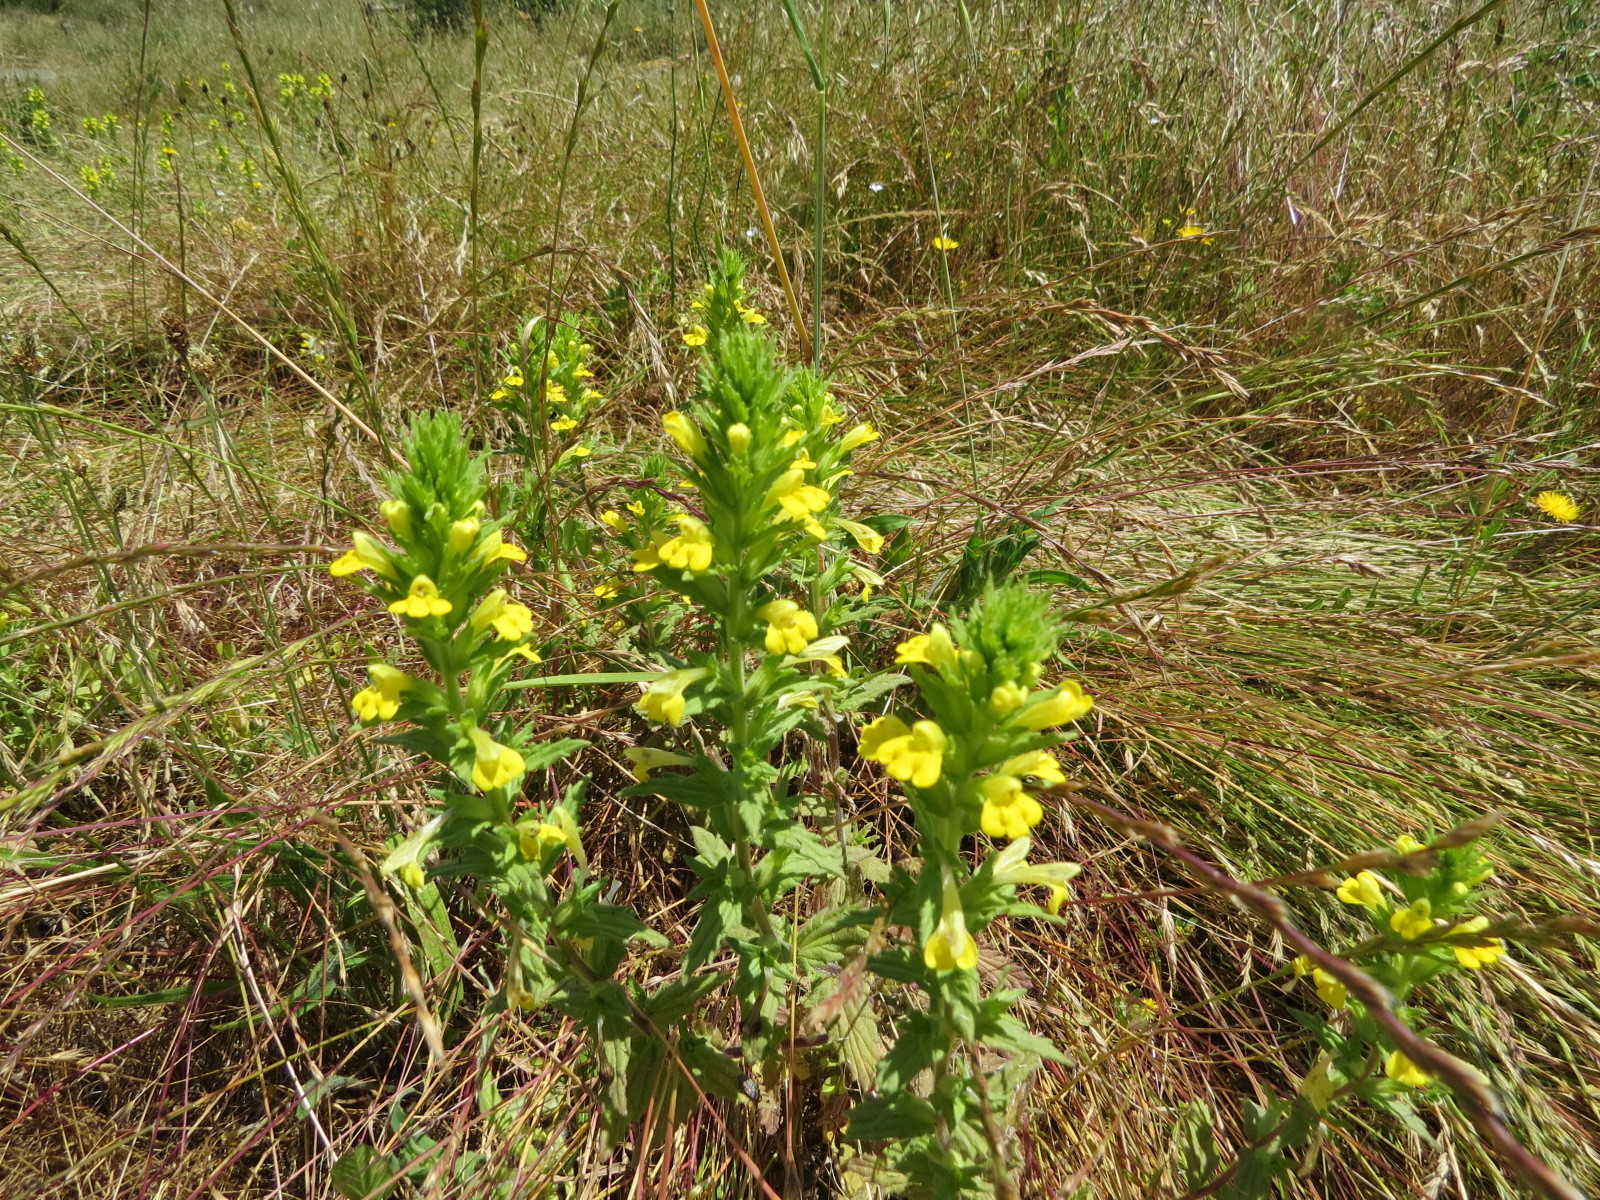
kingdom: Plantae
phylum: Tracheophyta
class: Magnoliopsida
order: Lamiales
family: Orobanchaceae
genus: Bellardia
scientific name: Bellardia viscosa
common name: Sticky parentucellia
